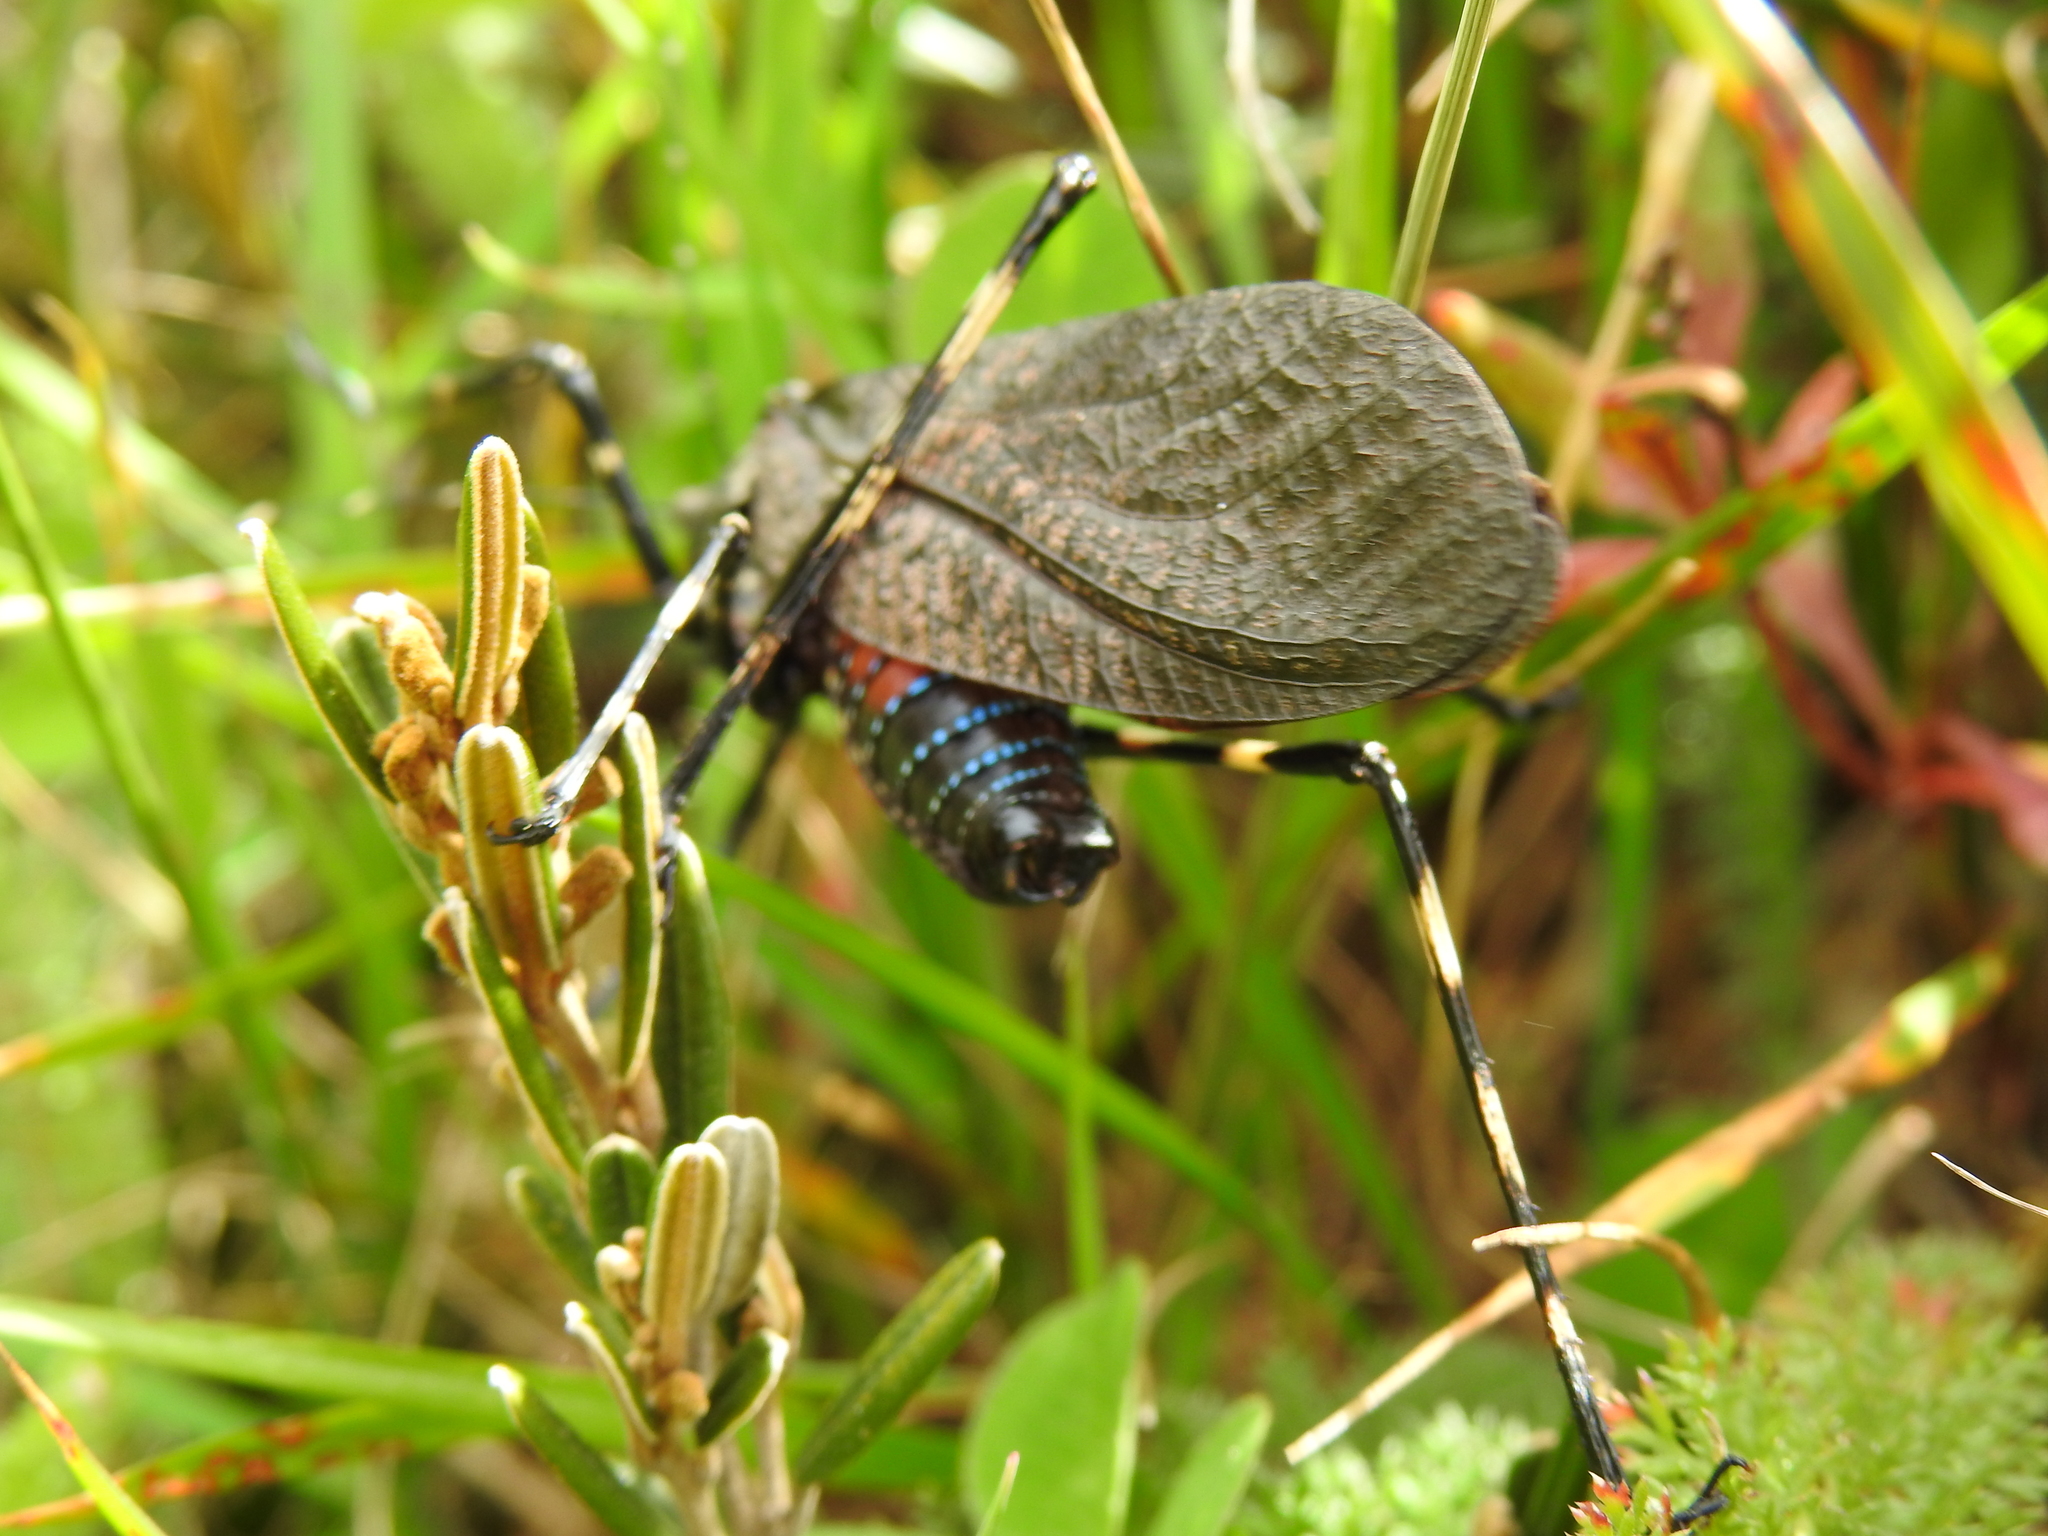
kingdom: Animalia
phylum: Arthropoda
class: Insecta
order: Orthoptera
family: Tettigoniidae
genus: Acripeza
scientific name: Acripeza reticulata
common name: Mountain katydid
